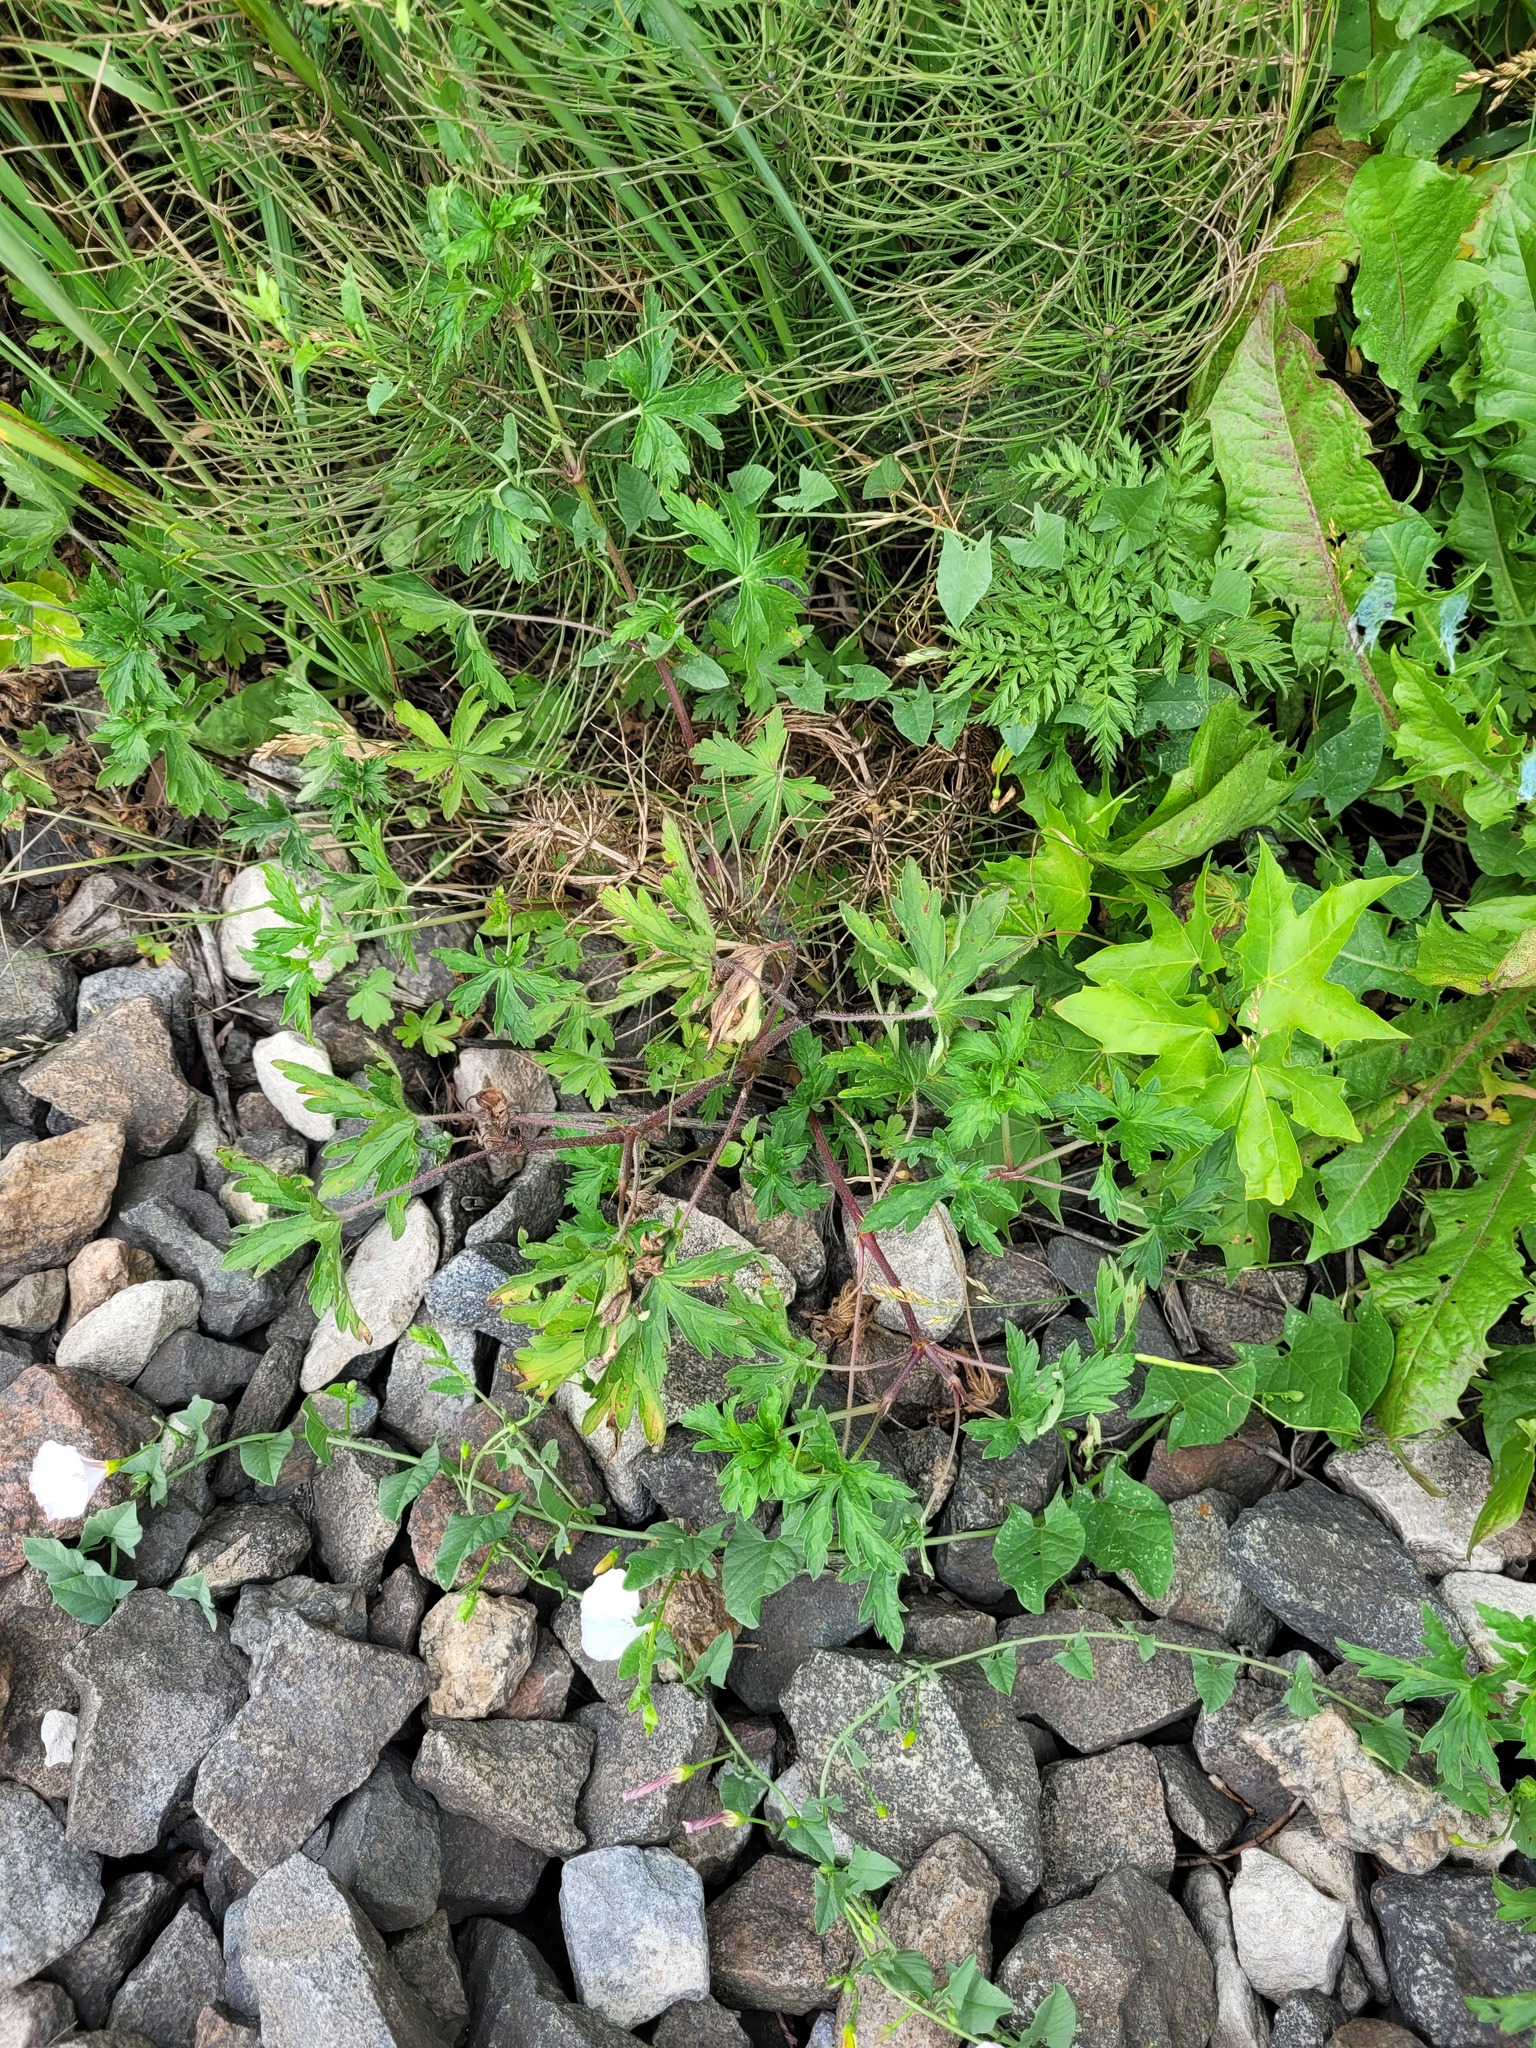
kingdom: Plantae
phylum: Tracheophyta
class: Magnoliopsida
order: Geraniales
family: Geraniaceae
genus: Geranium
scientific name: Geranium sibiricum
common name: Siberian crane's-bill
